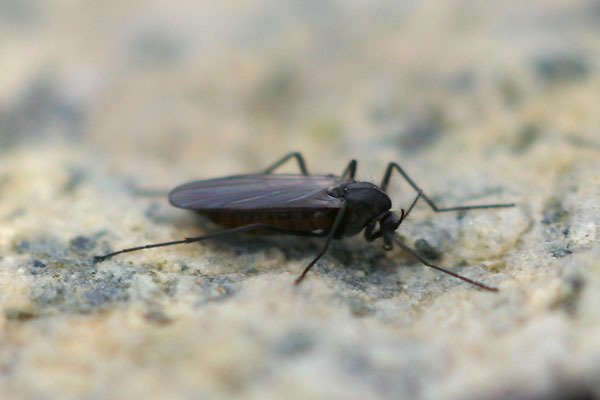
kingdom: Animalia
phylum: Arthropoda
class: Insecta
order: Diptera
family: Chironomidae
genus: Limnophyes
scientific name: Limnophyes minimus
